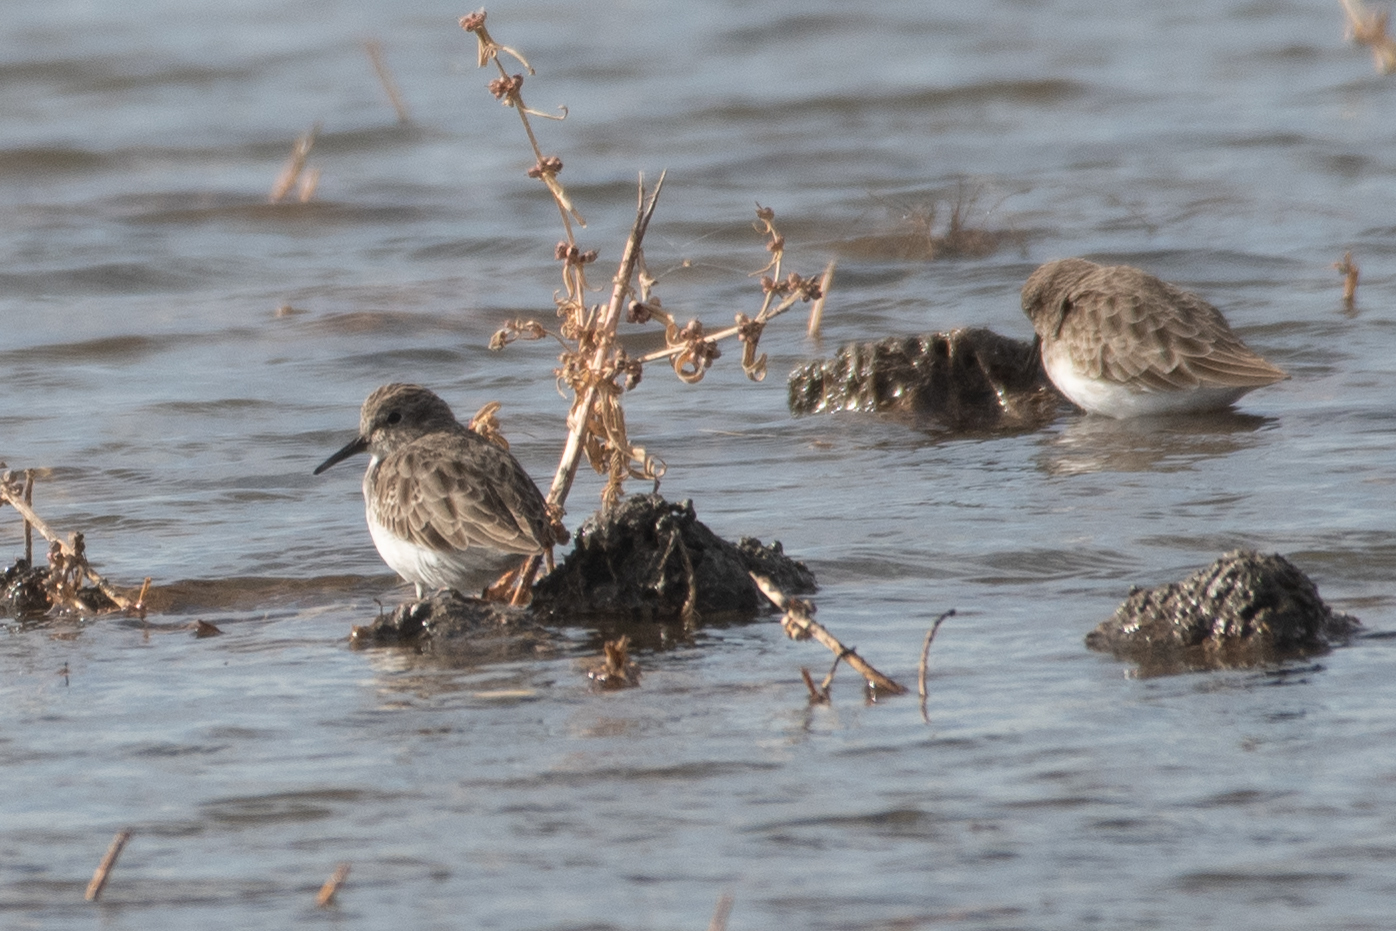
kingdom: Animalia
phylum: Chordata
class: Aves
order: Charadriiformes
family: Scolopacidae
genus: Calidris
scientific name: Calidris minutilla
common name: Least sandpiper
